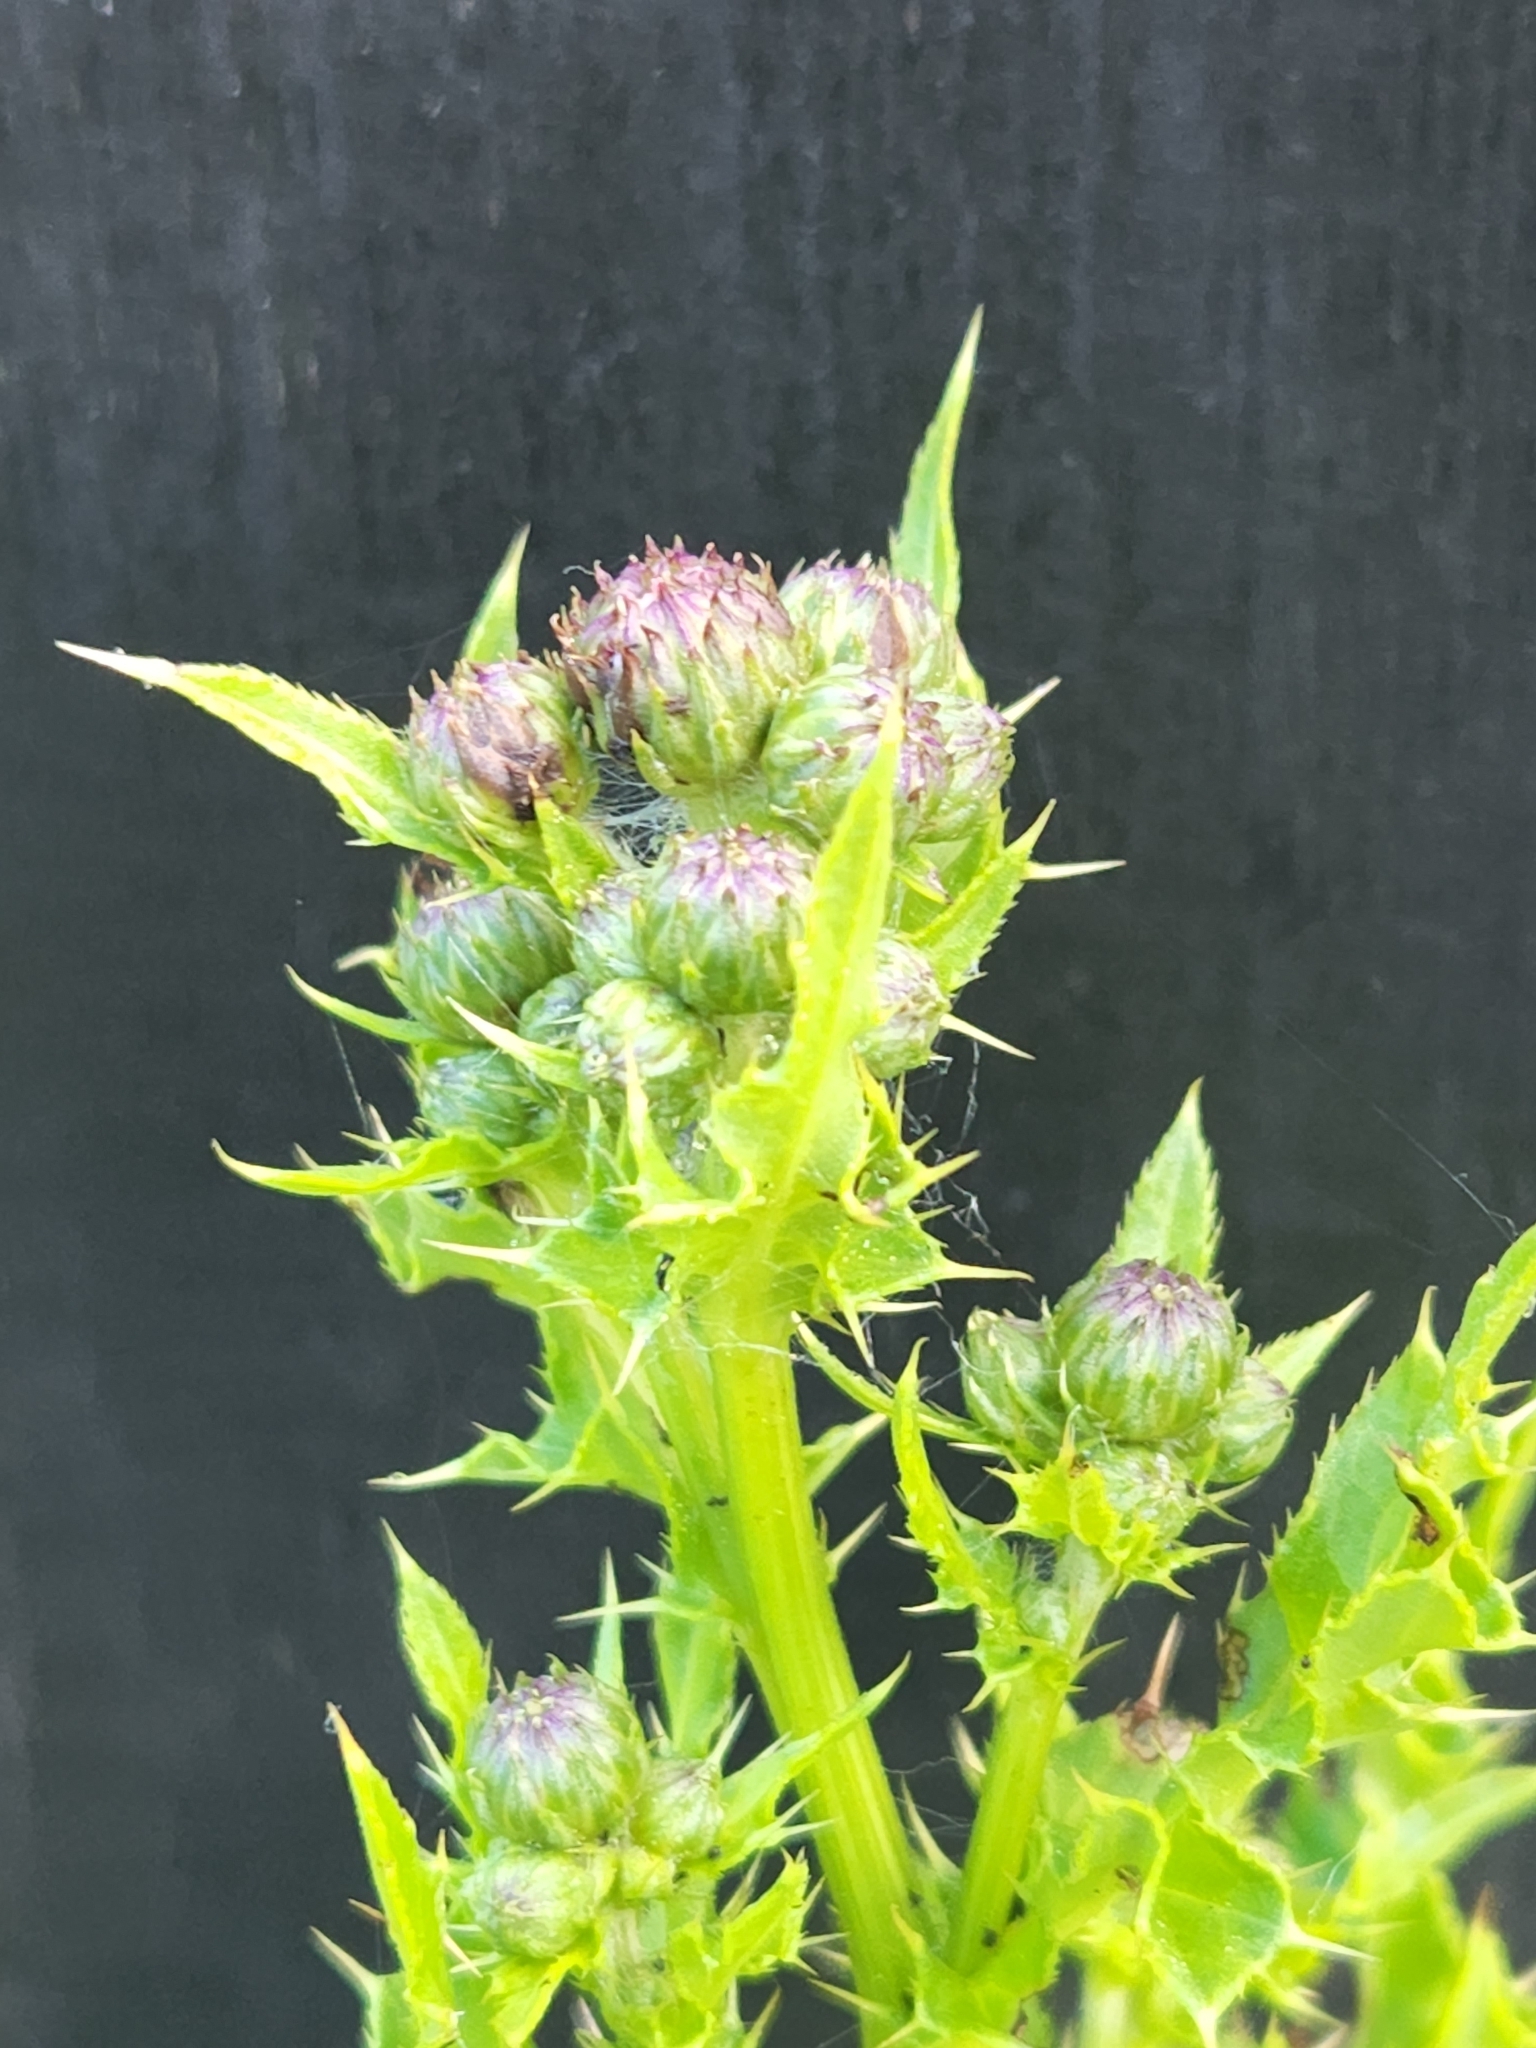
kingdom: Plantae
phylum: Tracheophyta
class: Magnoliopsida
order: Asterales
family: Asteraceae
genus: Cirsium
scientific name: Cirsium arvense
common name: Creeping thistle
